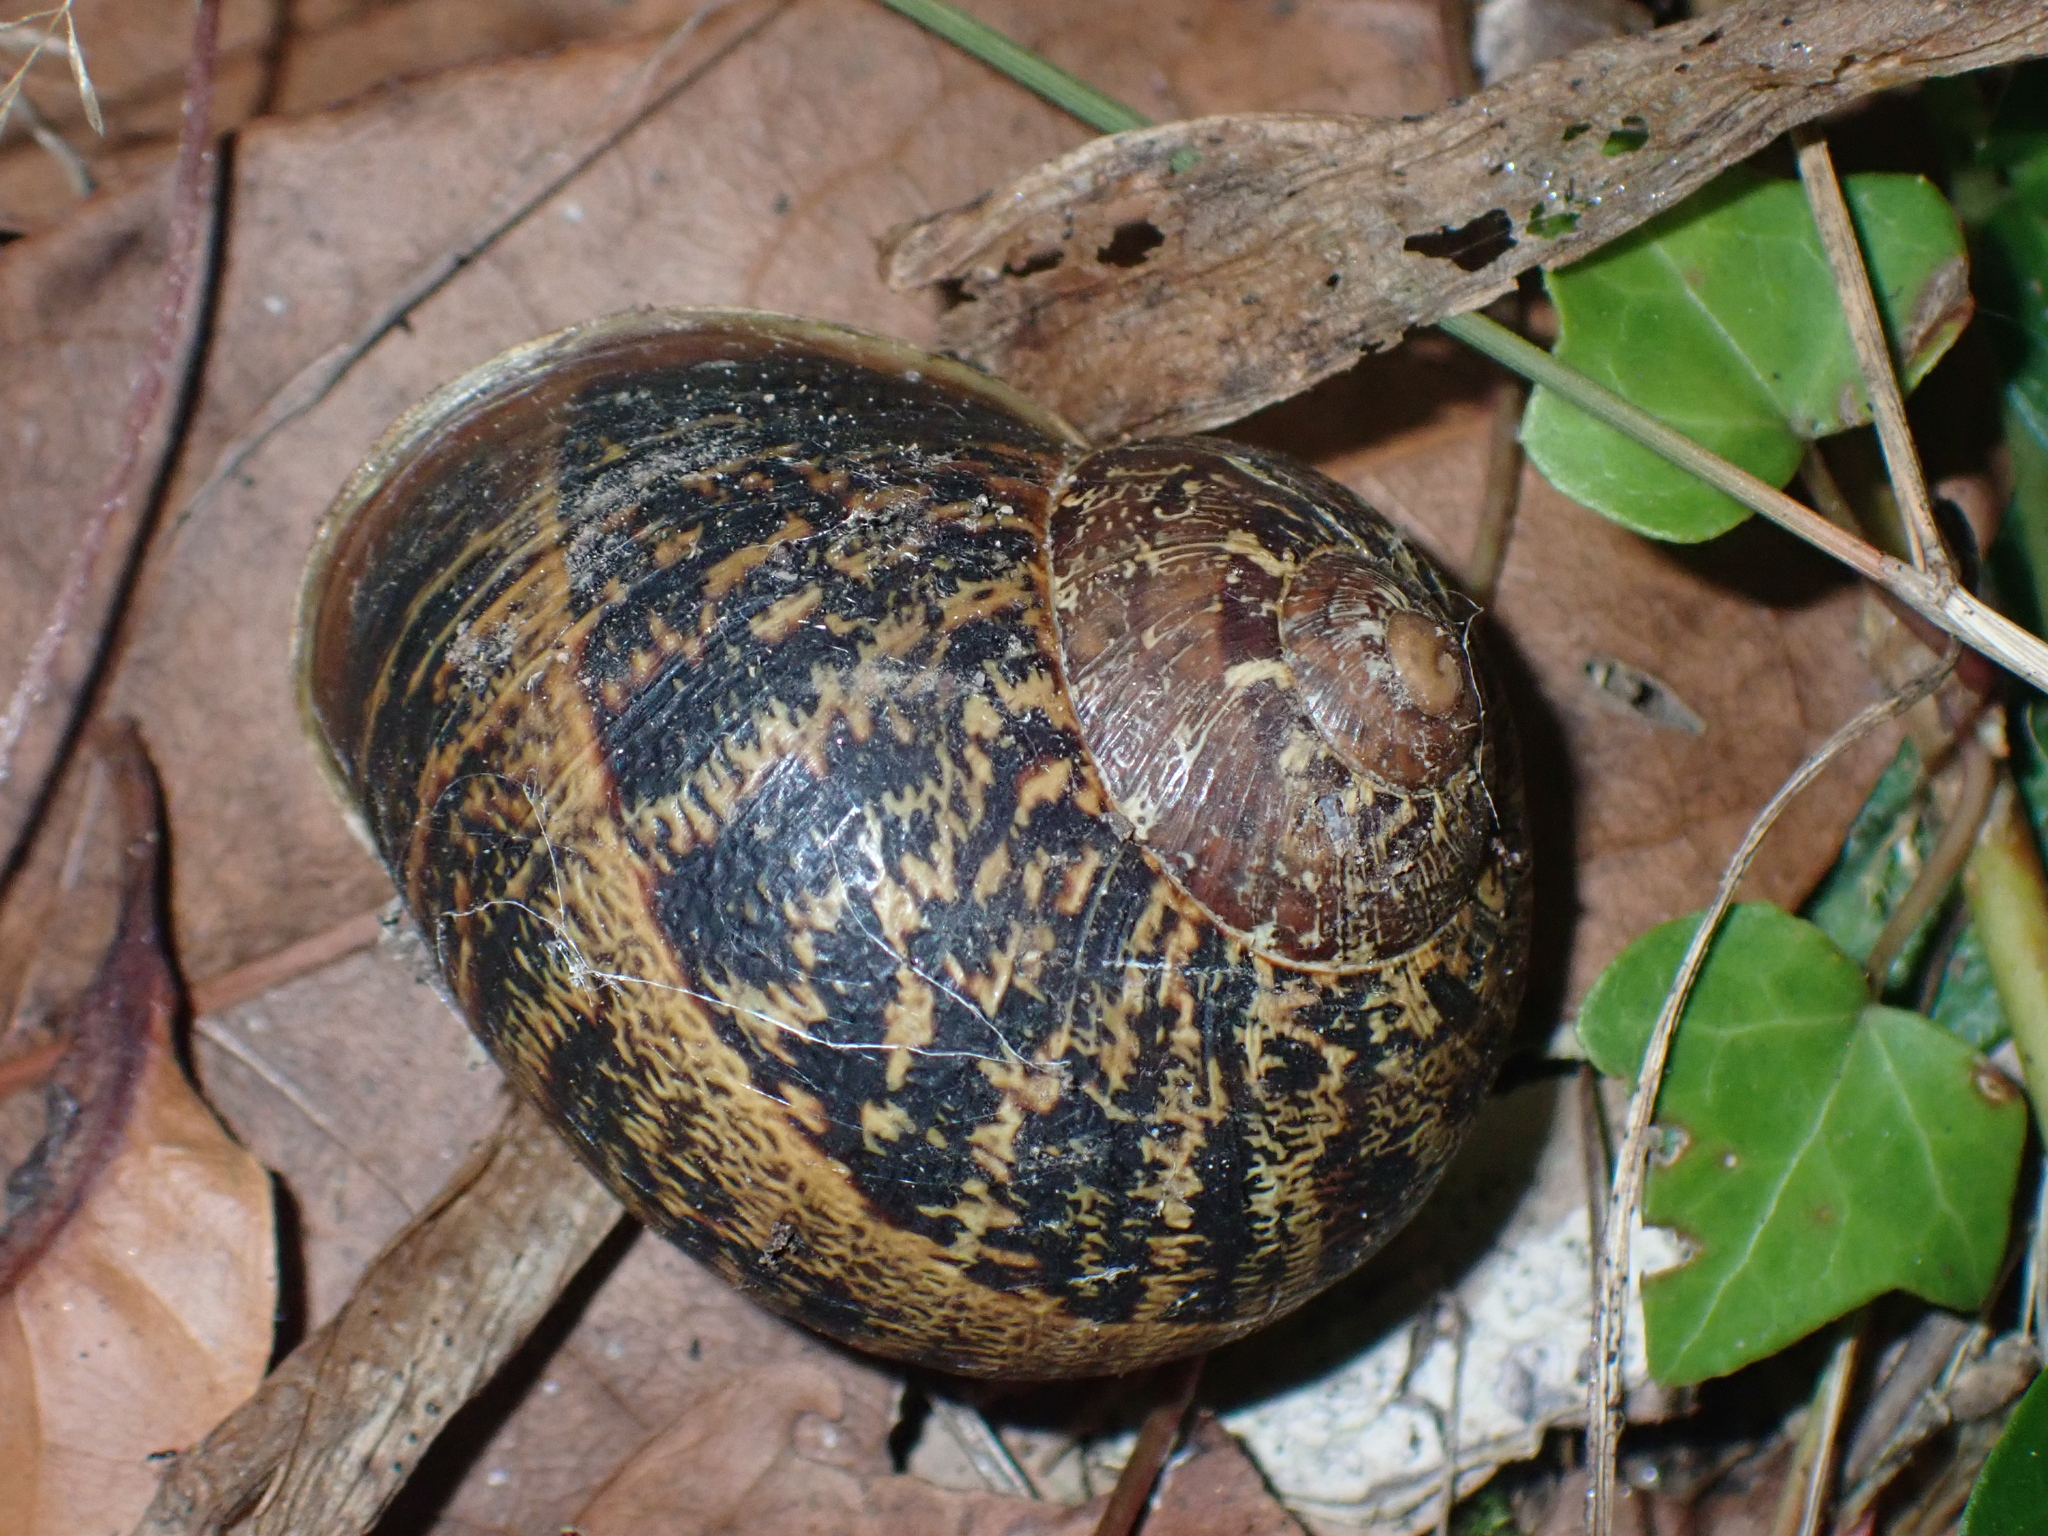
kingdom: Animalia
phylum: Mollusca
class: Gastropoda
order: Stylommatophora
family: Helicidae
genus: Cornu
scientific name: Cornu aspersum
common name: Brown garden snail
